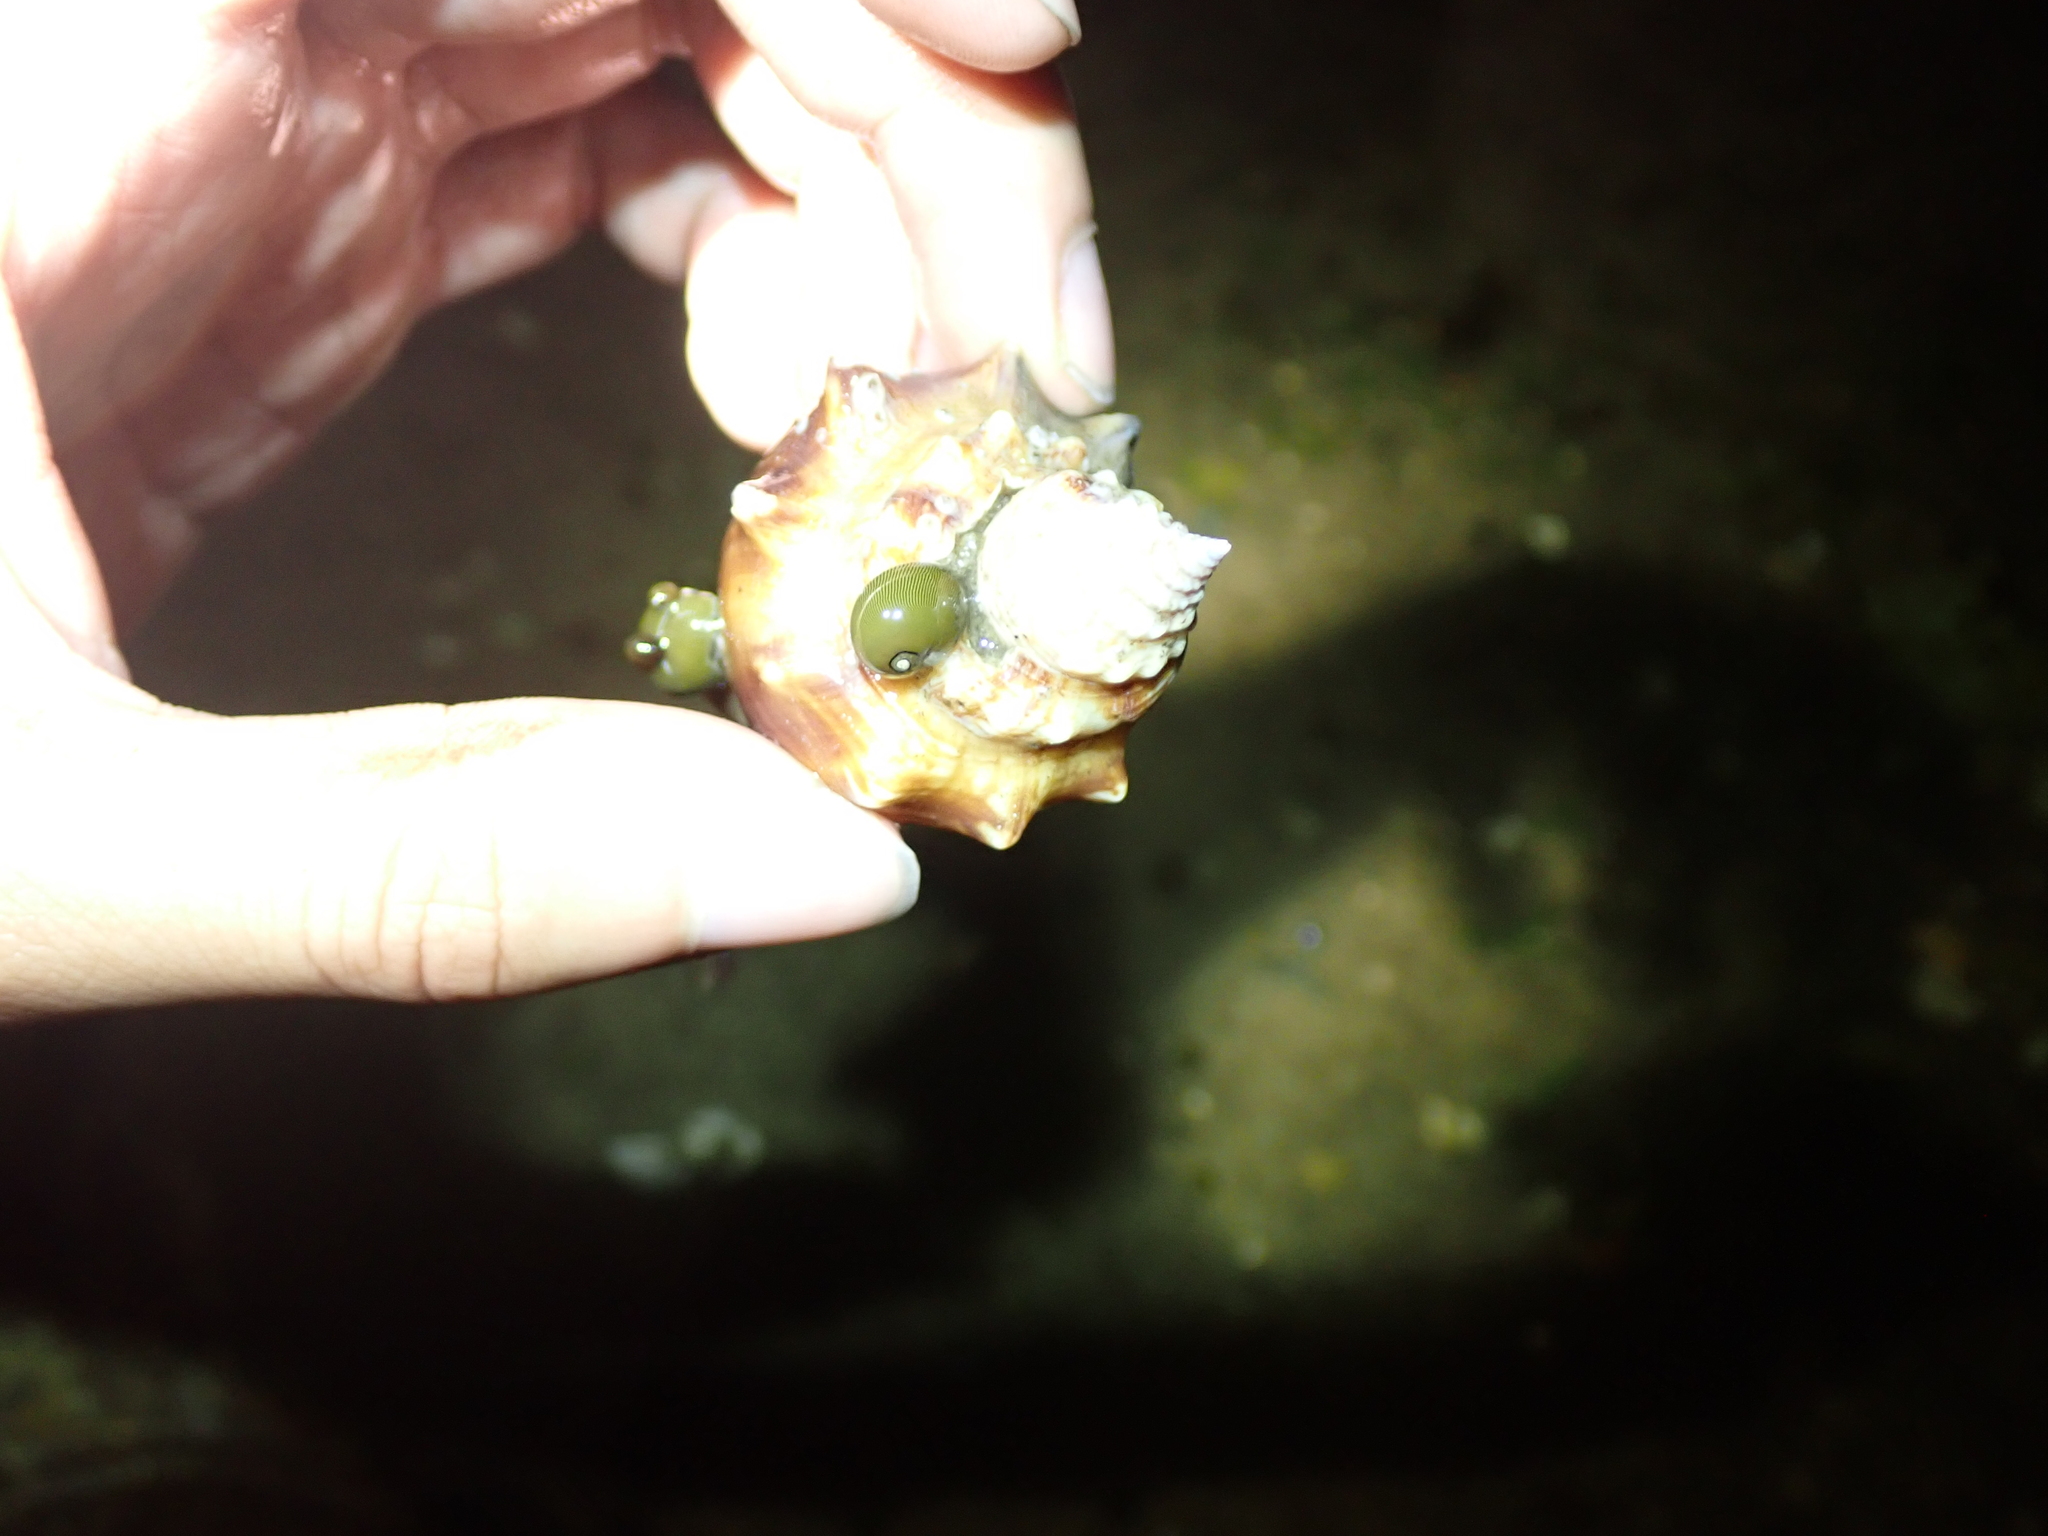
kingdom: Animalia
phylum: Mollusca
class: Gastropoda
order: Cycloneritida
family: Neritidae
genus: Vitta
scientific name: Vitta usnea
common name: Olive nerite
